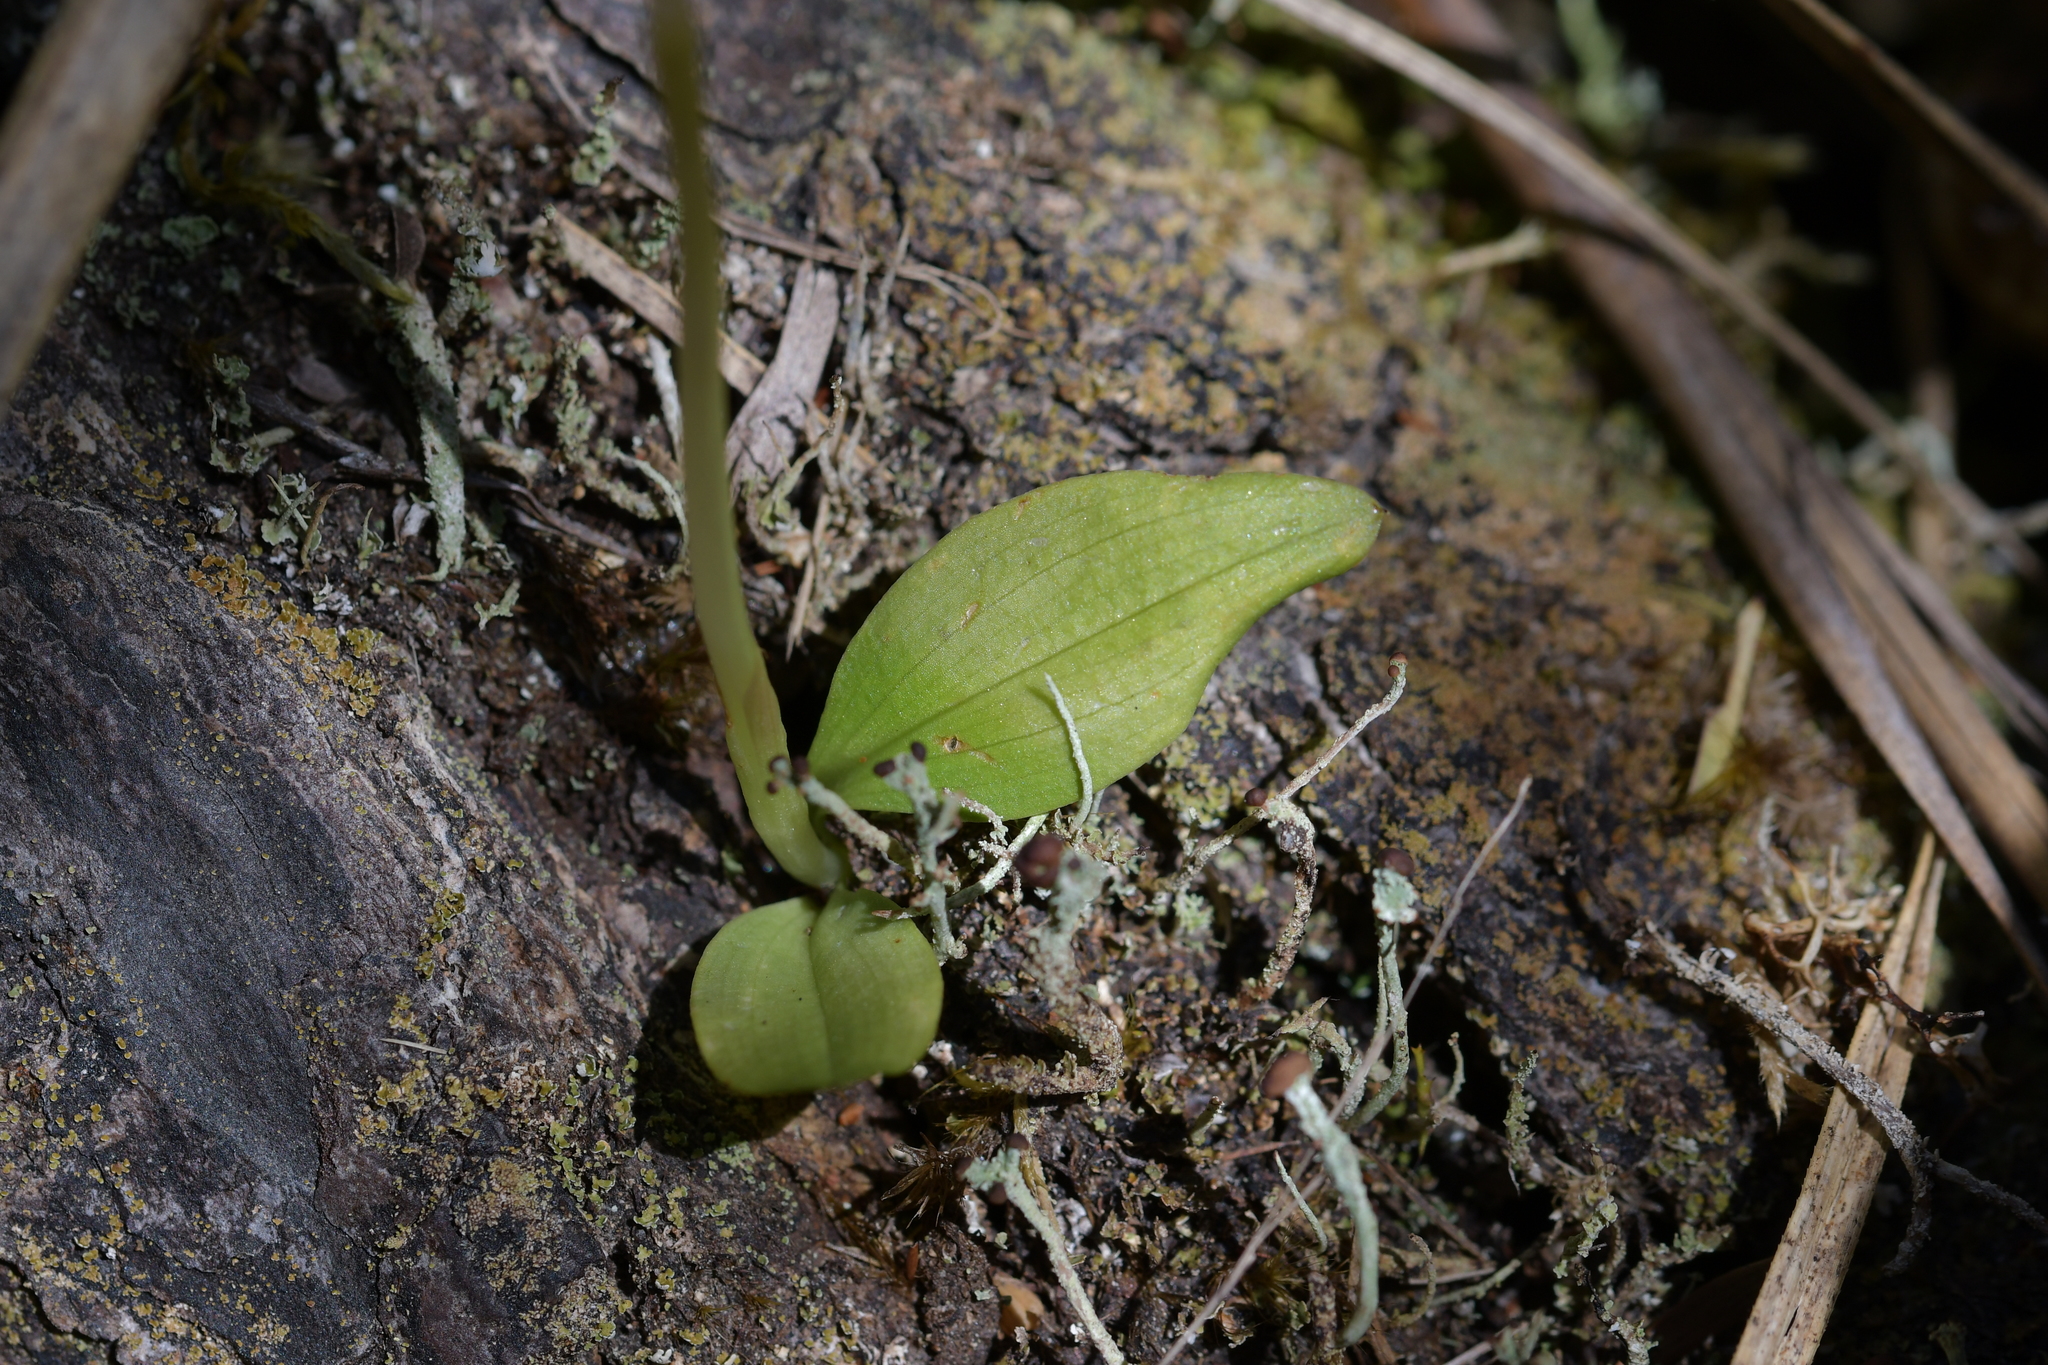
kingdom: Plantae
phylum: Tracheophyta
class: Liliopsida
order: Asparagales
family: Orchidaceae
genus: Chiloglottis
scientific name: Chiloglottis cornuta
